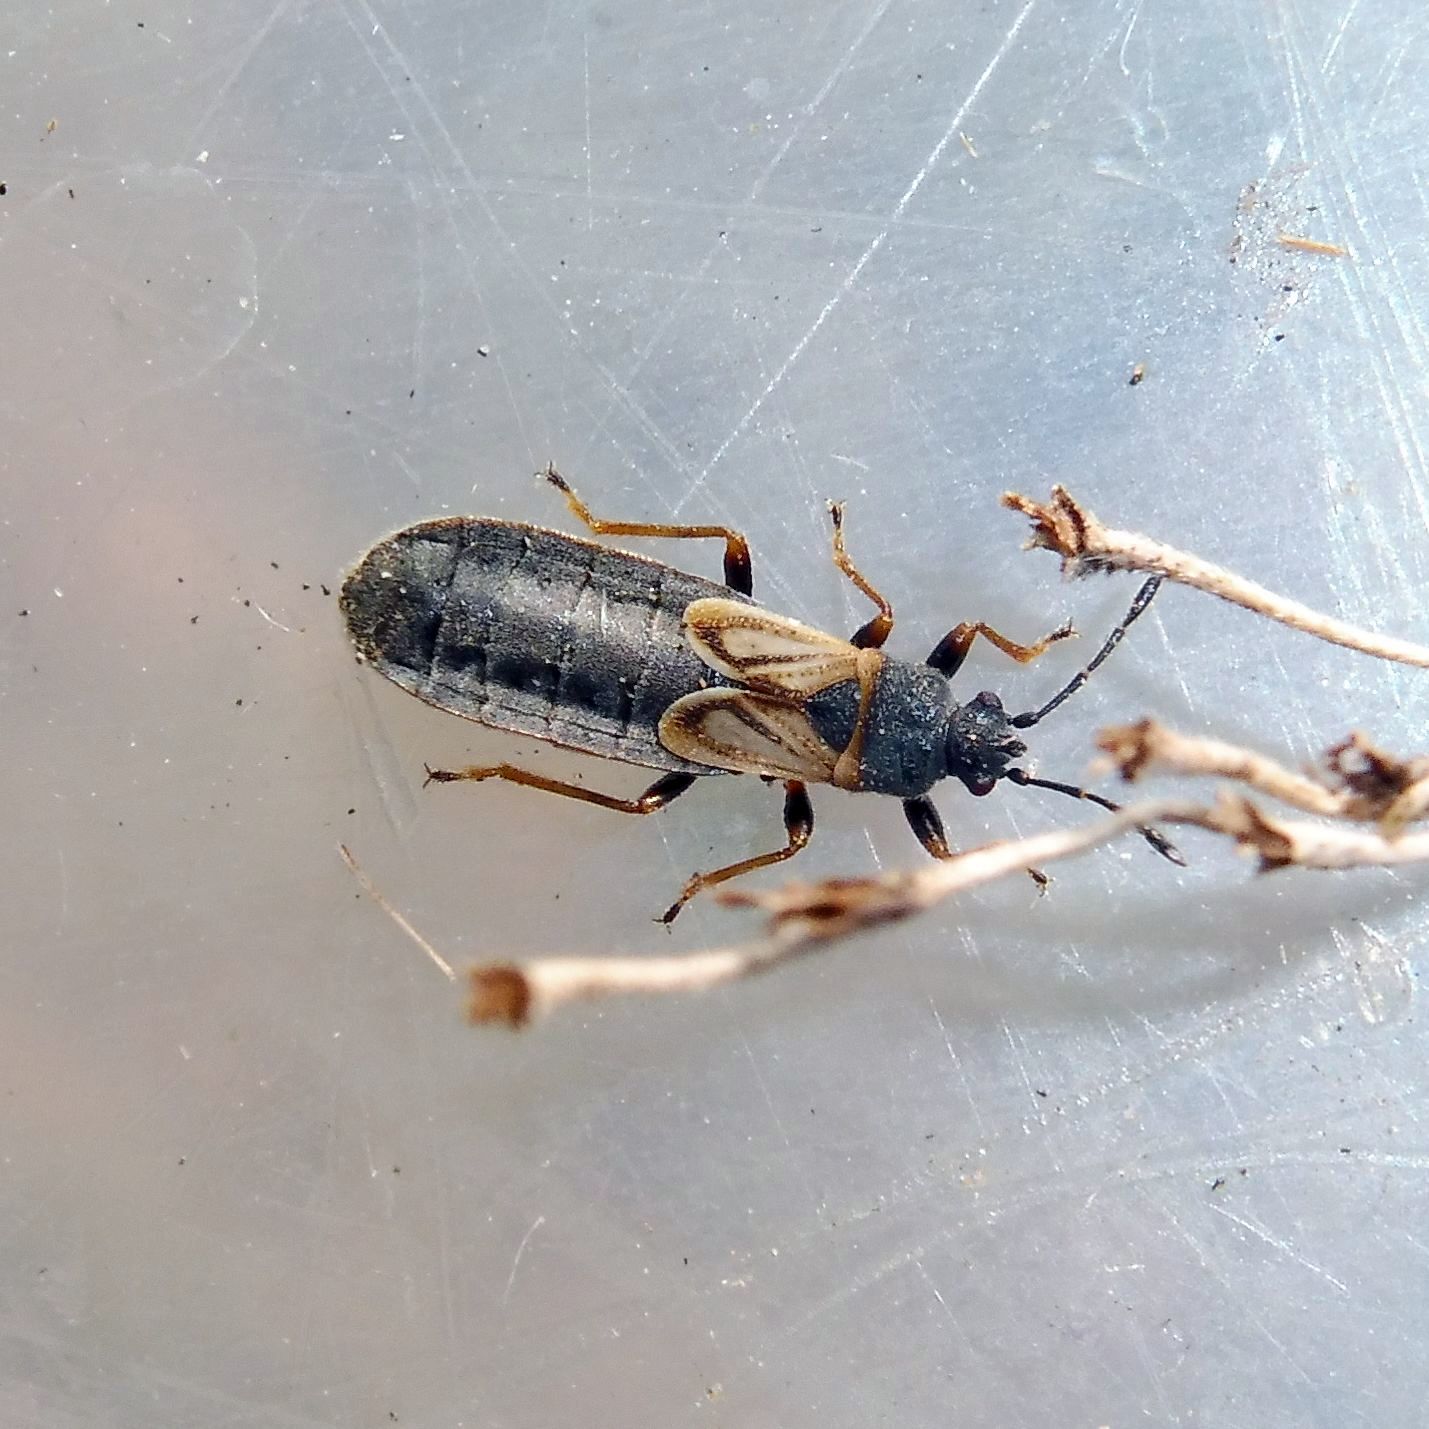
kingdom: Animalia
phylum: Arthropoda
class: Insecta
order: Hemiptera
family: Blissidae
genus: Ischnodemus
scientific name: Ischnodemus sabuleti
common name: European cinchbug
